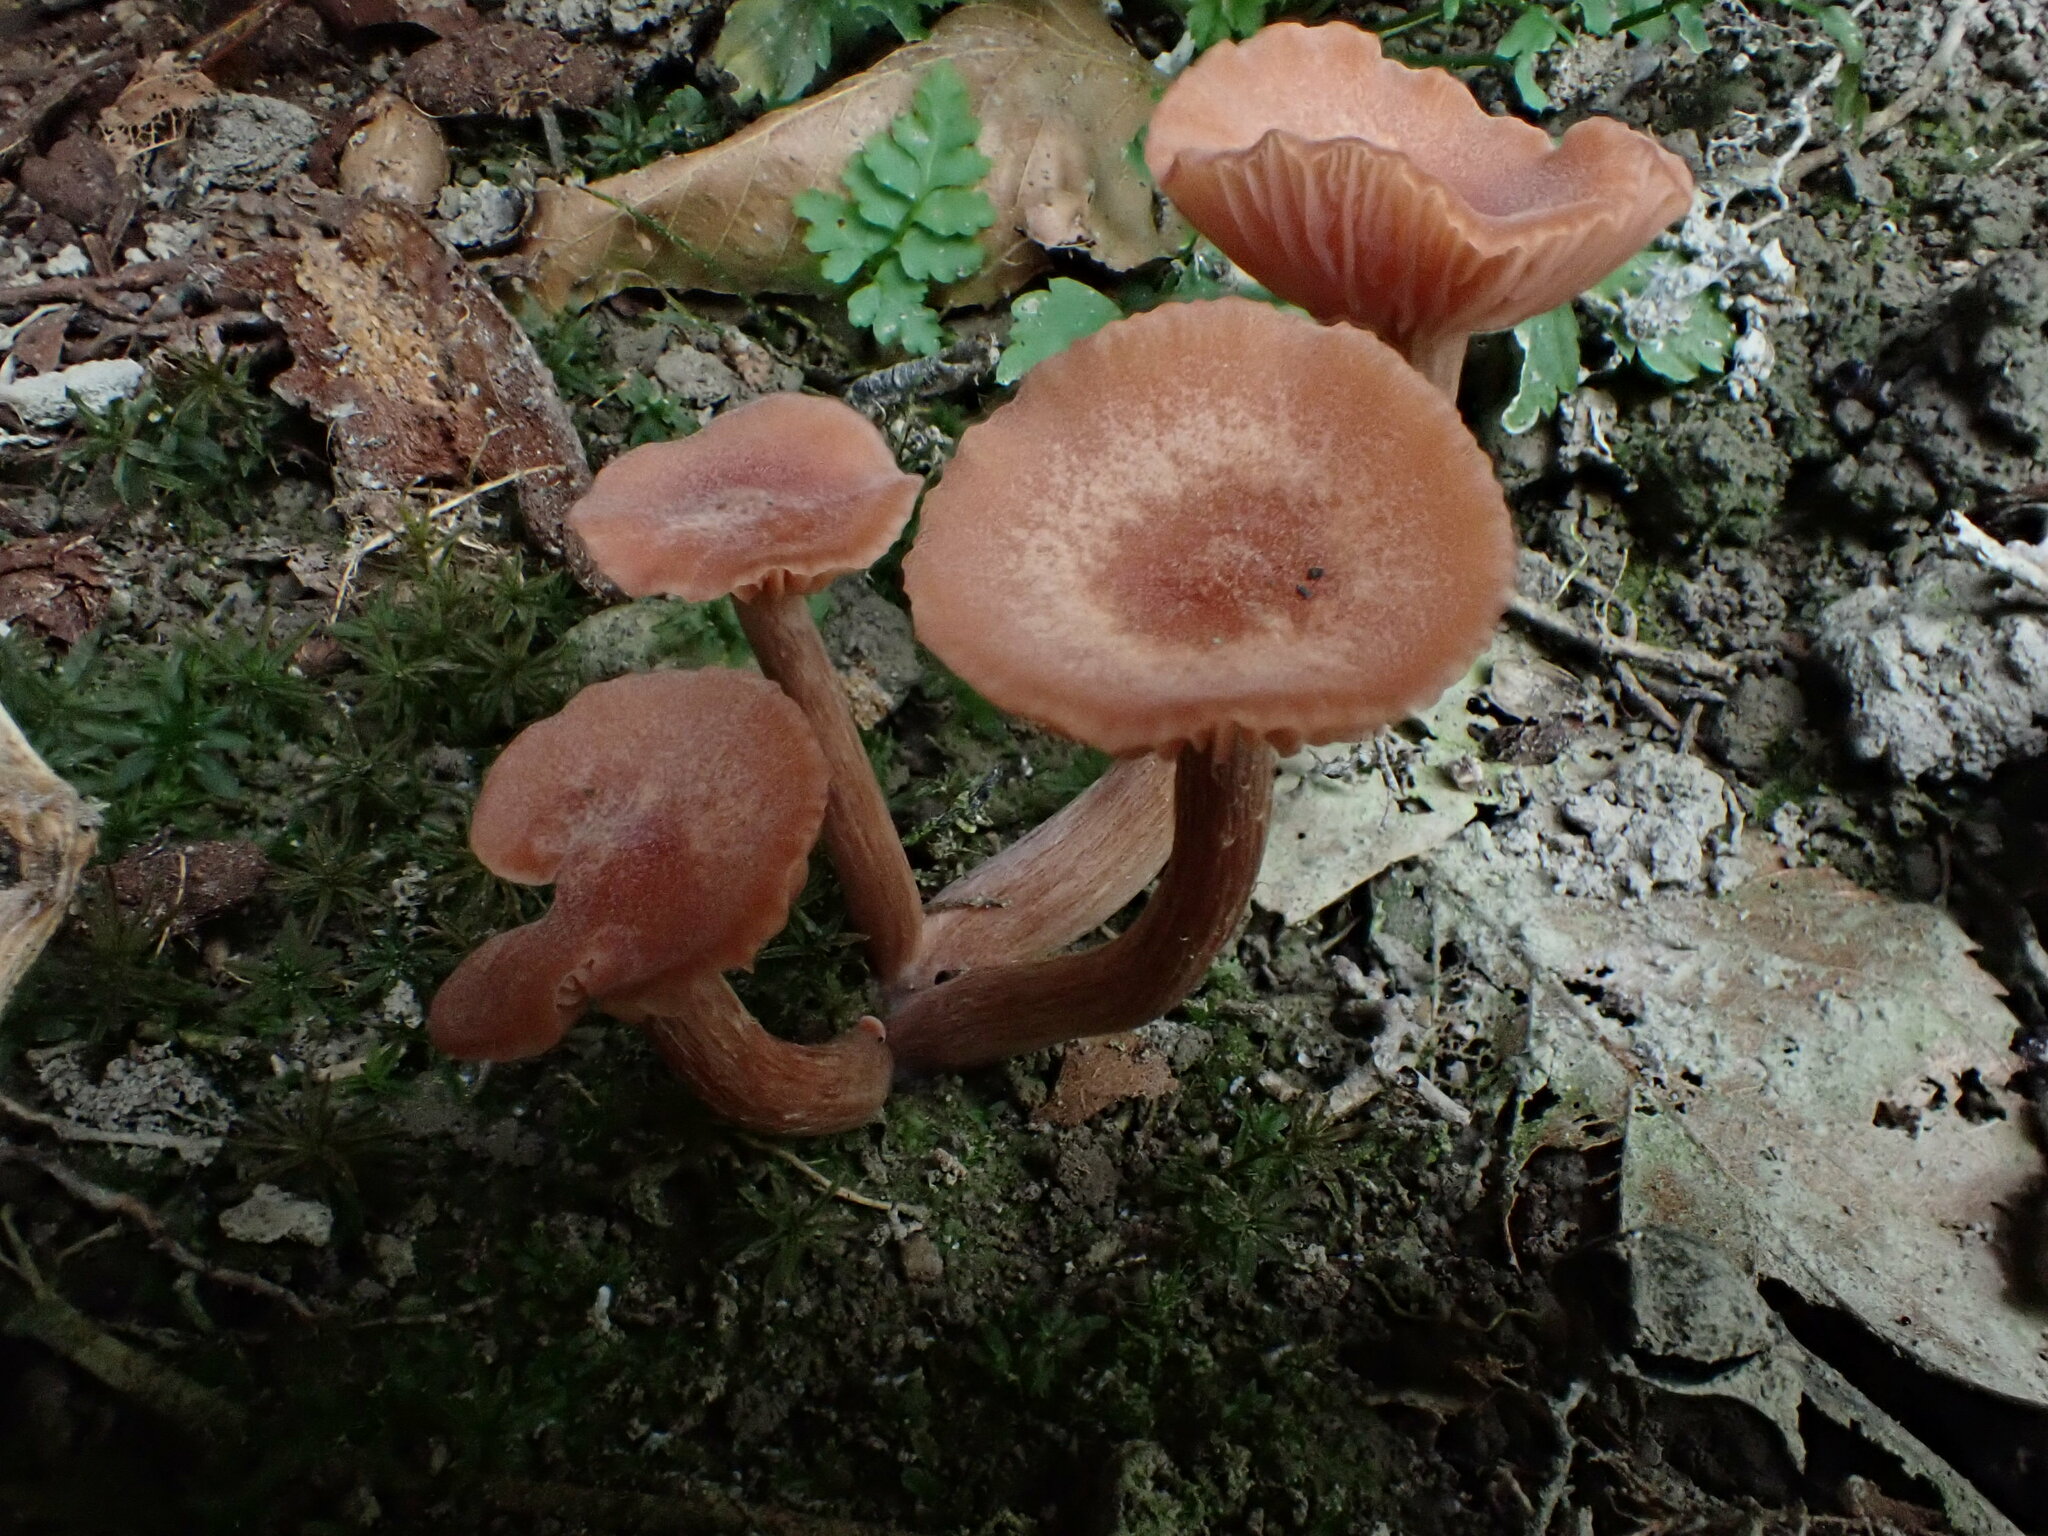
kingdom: Fungi
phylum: Basidiomycota
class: Agaricomycetes
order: Agaricales
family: Hydnangiaceae
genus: Laccaria
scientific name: Laccaria laccata
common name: Deceiver
